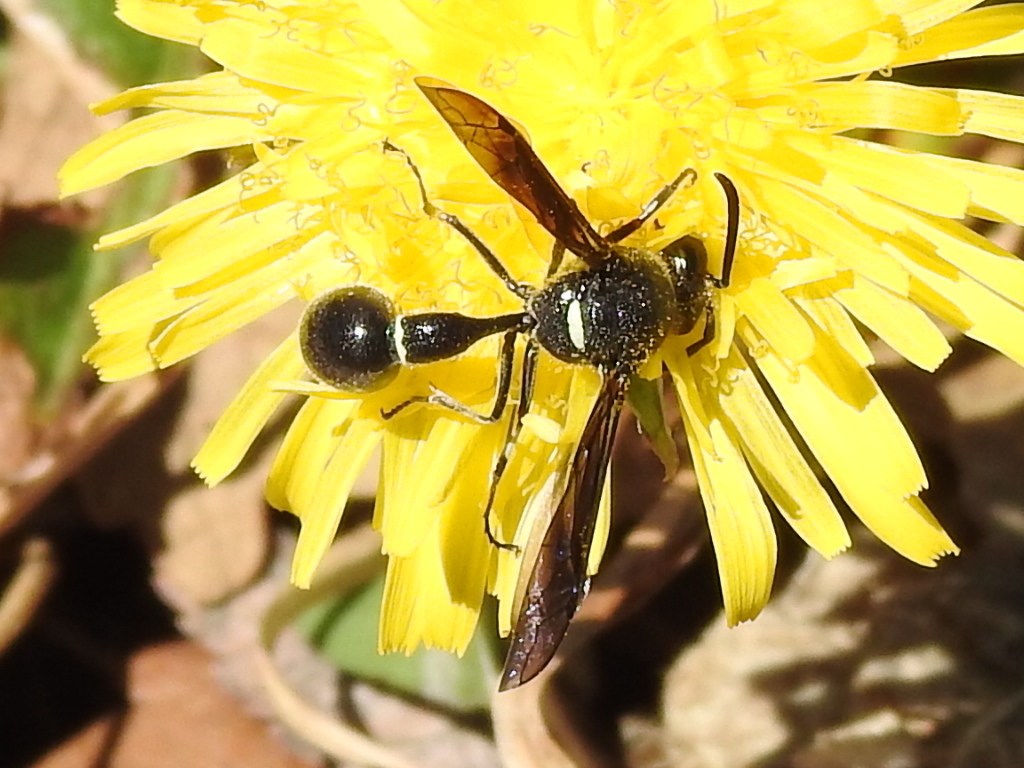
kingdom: Animalia
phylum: Arthropoda
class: Insecta
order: Hymenoptera
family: Vespidae
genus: Eumenes
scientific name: Eumenes fraternus
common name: Fraternal potter wasp
